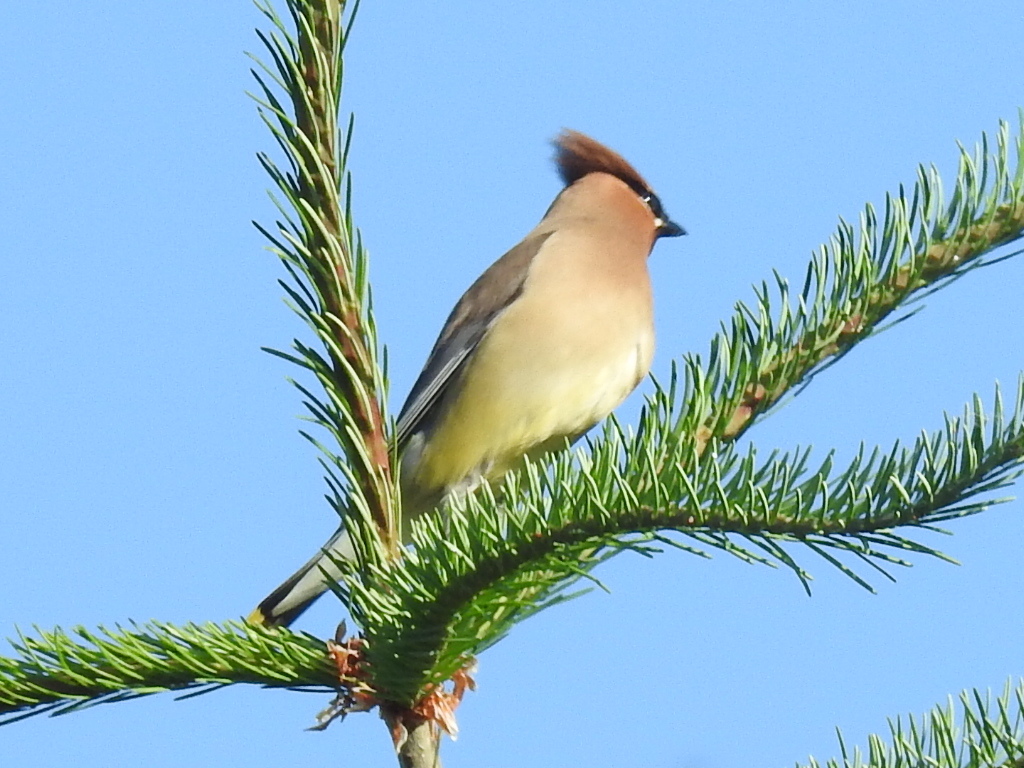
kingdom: Animalia
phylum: Chordata
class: Aves
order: Passeriformes
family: Bombycillidae
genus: Bombycilla
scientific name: Bombycilla cedrorum
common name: Cedar waxwing
